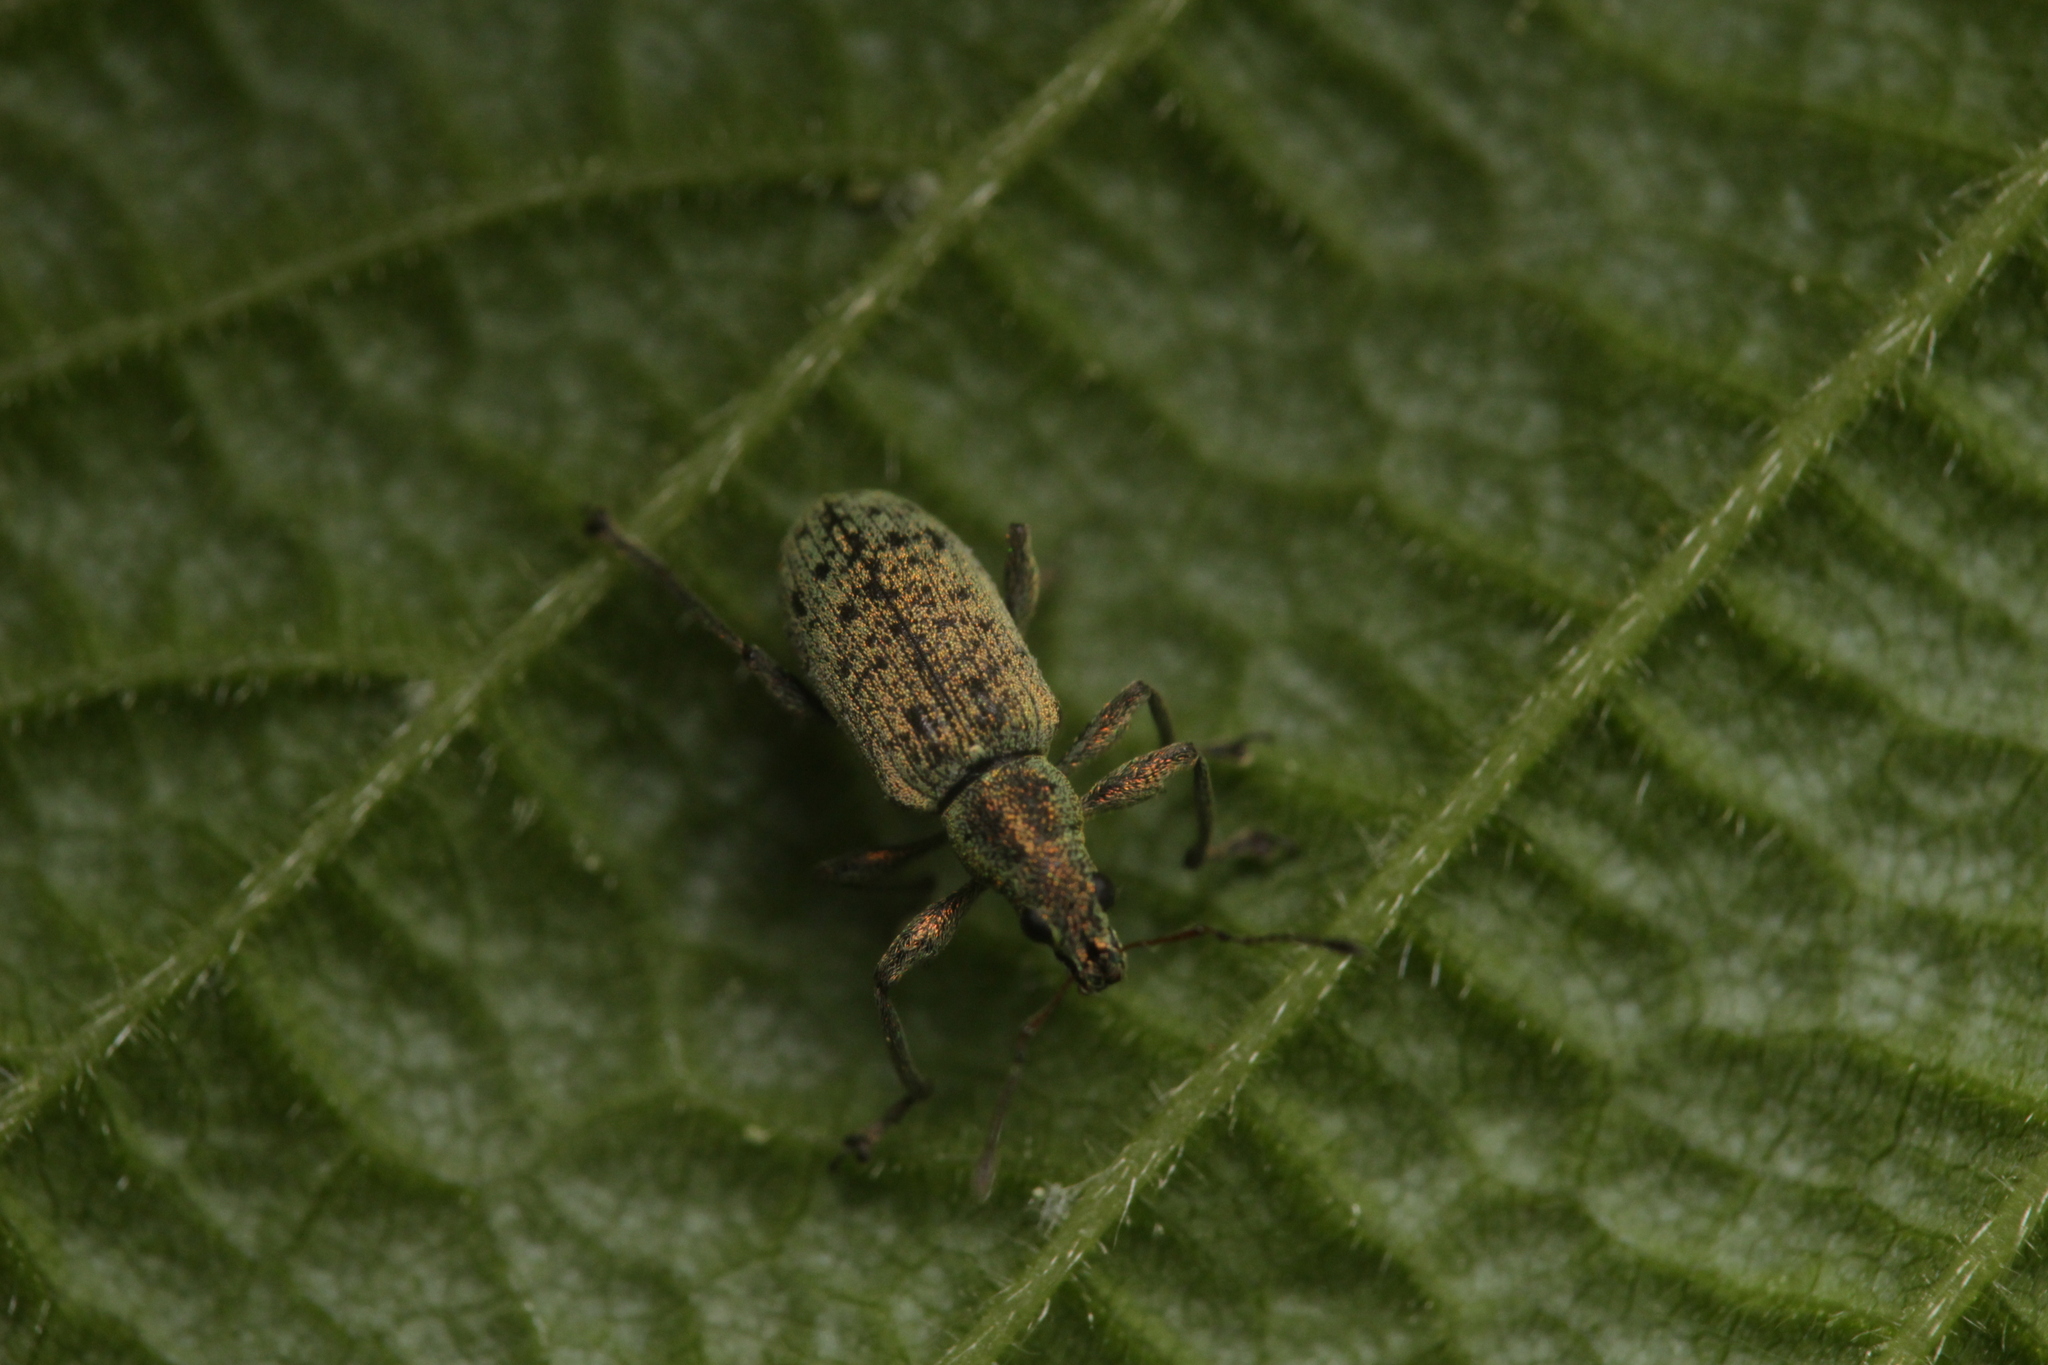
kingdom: Animalia
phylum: Arthropoda
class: Insecta
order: Coleoptera
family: Curculionidae
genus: Polydrusus
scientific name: Polydrusus cervinus
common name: Weevil
